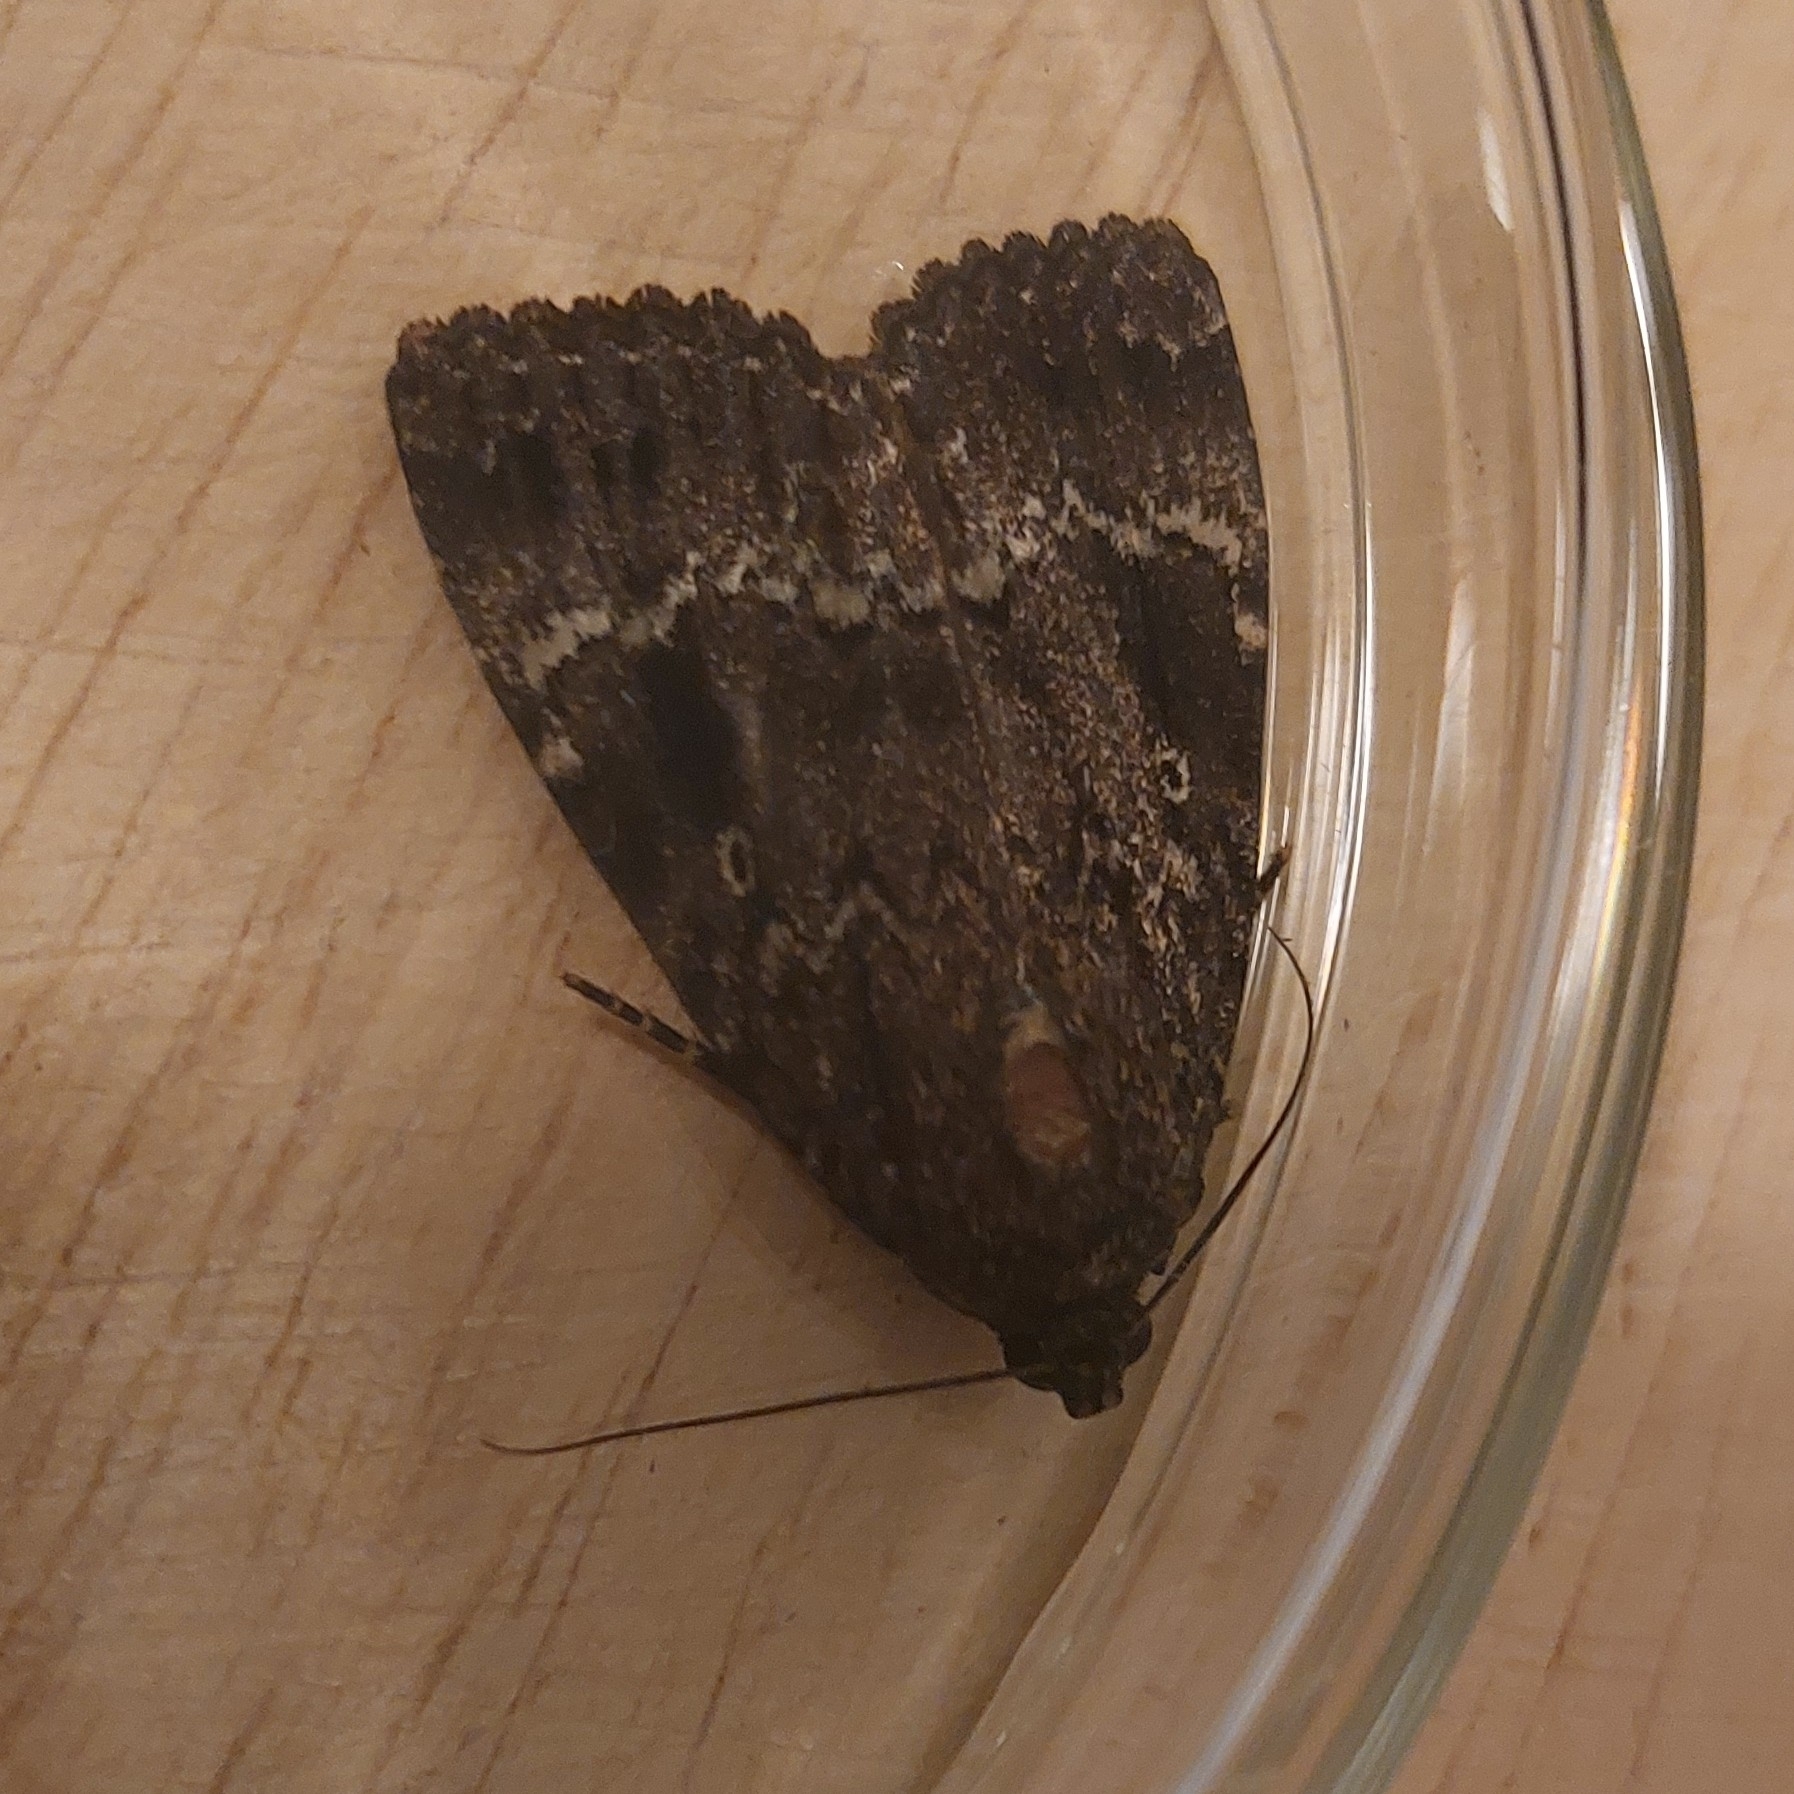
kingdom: Animalia
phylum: Arthropoda
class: Insecta
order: Lepidoptera
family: Noctuidae
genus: Amphipyra
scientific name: Amphipyra pyramidea
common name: Copper underwing
